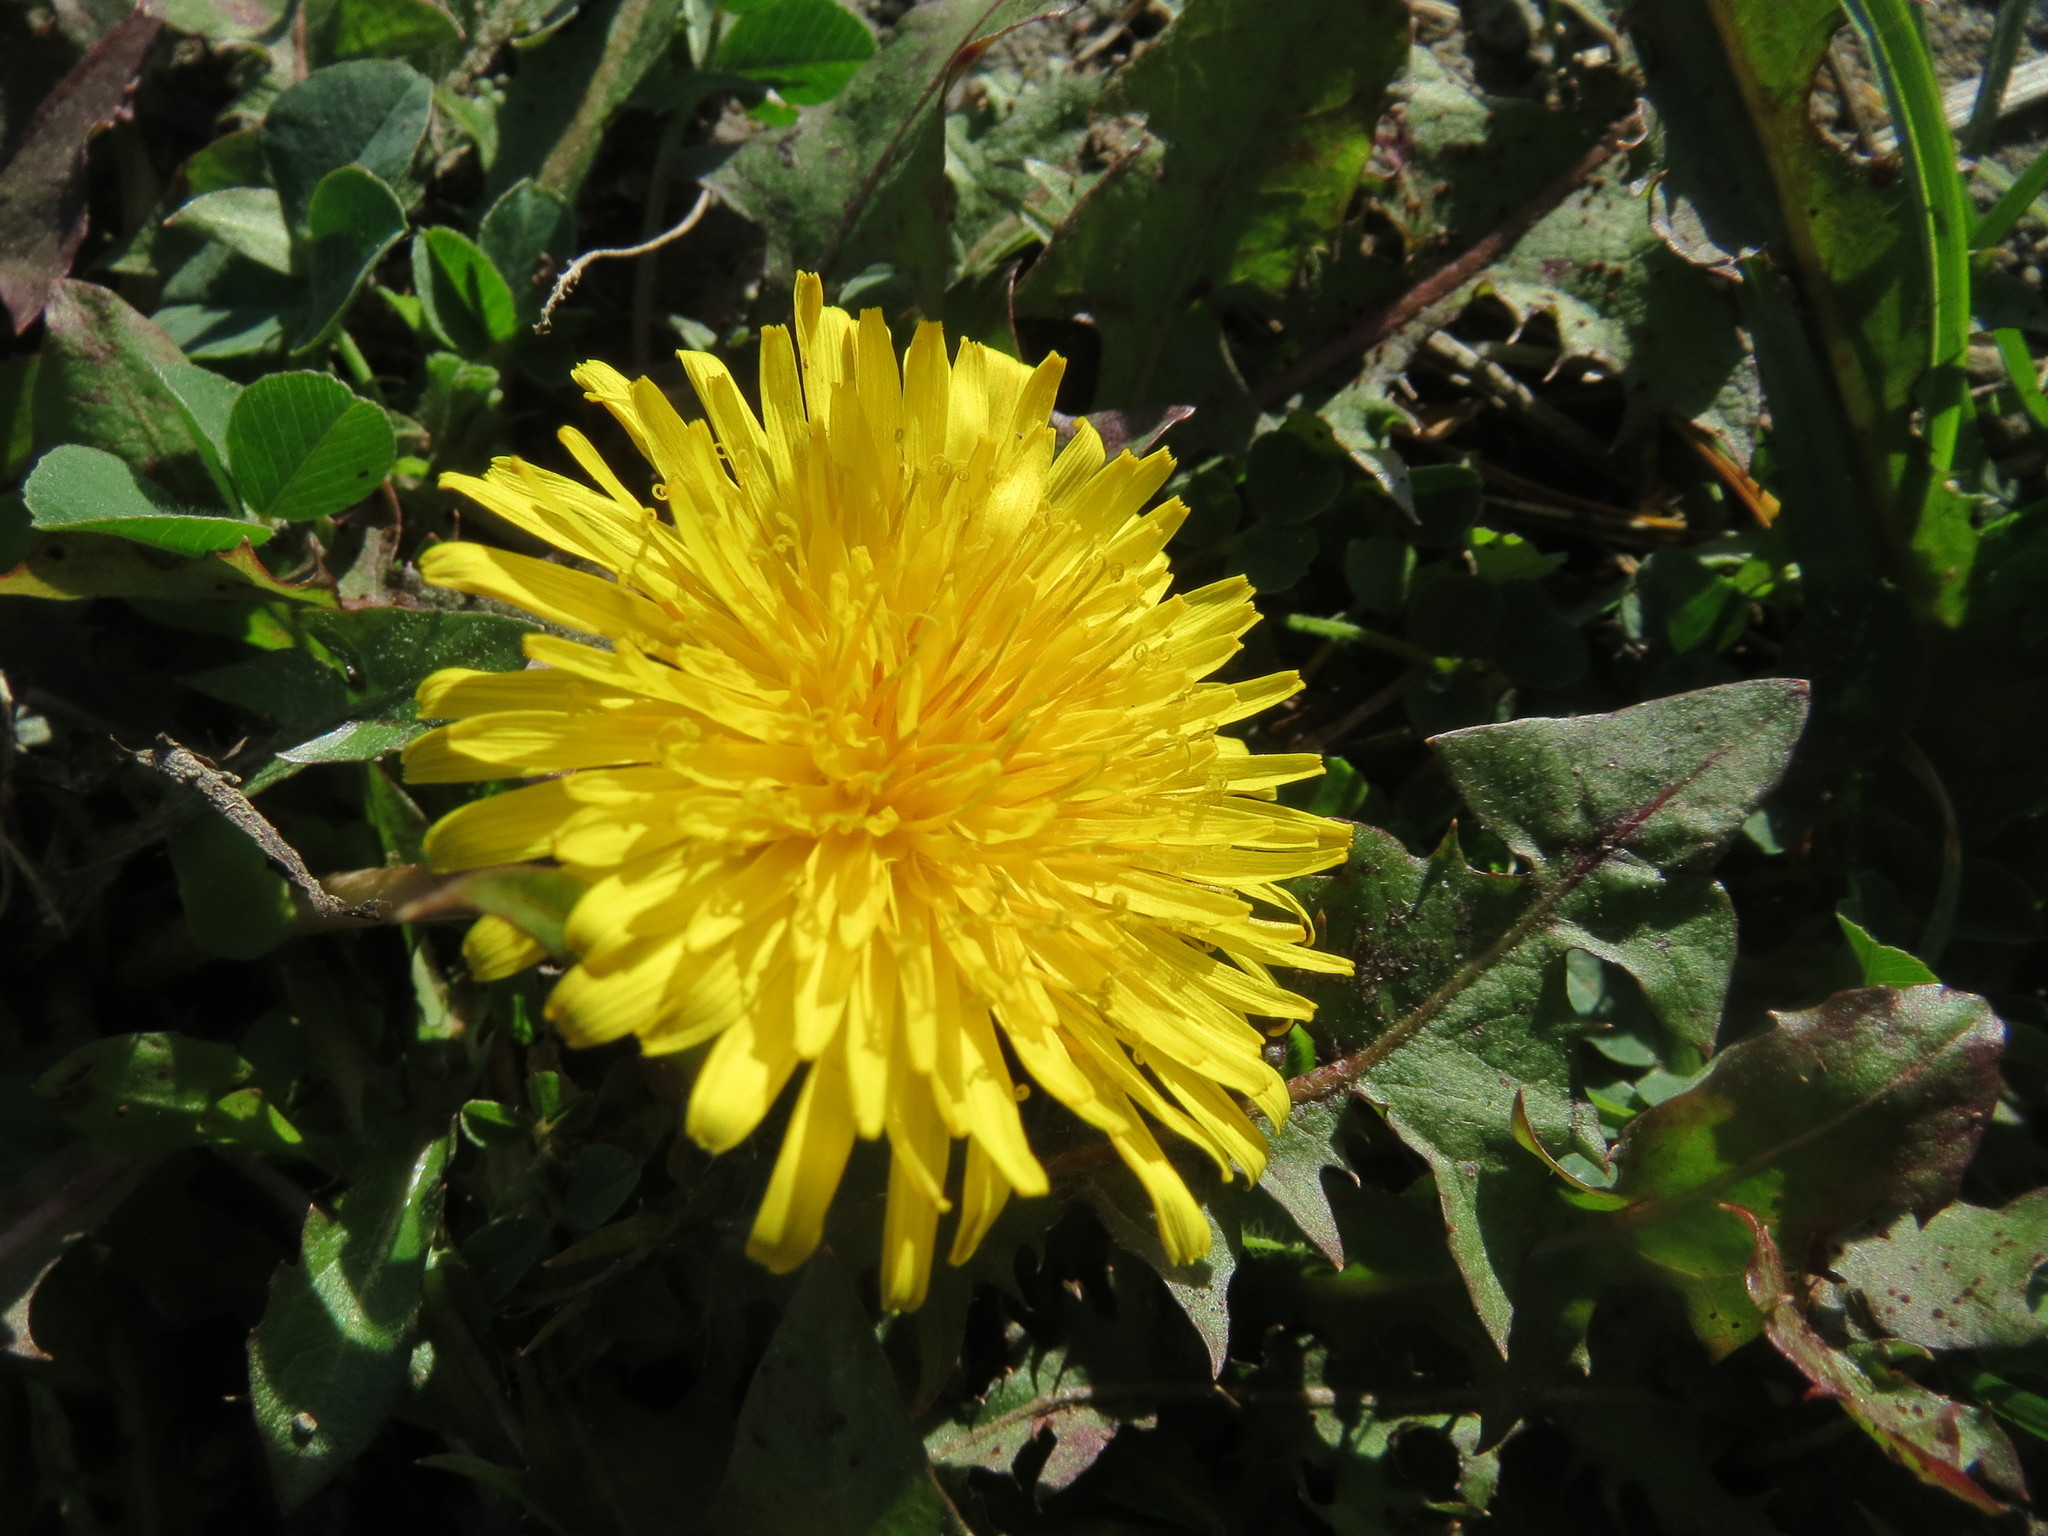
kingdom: Plantae
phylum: Tracheophyta
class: Magnoliopsida
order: Asterales
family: Asteraceae
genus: Taraxacum
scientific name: Taraxacum officinale
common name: Common dandelion
